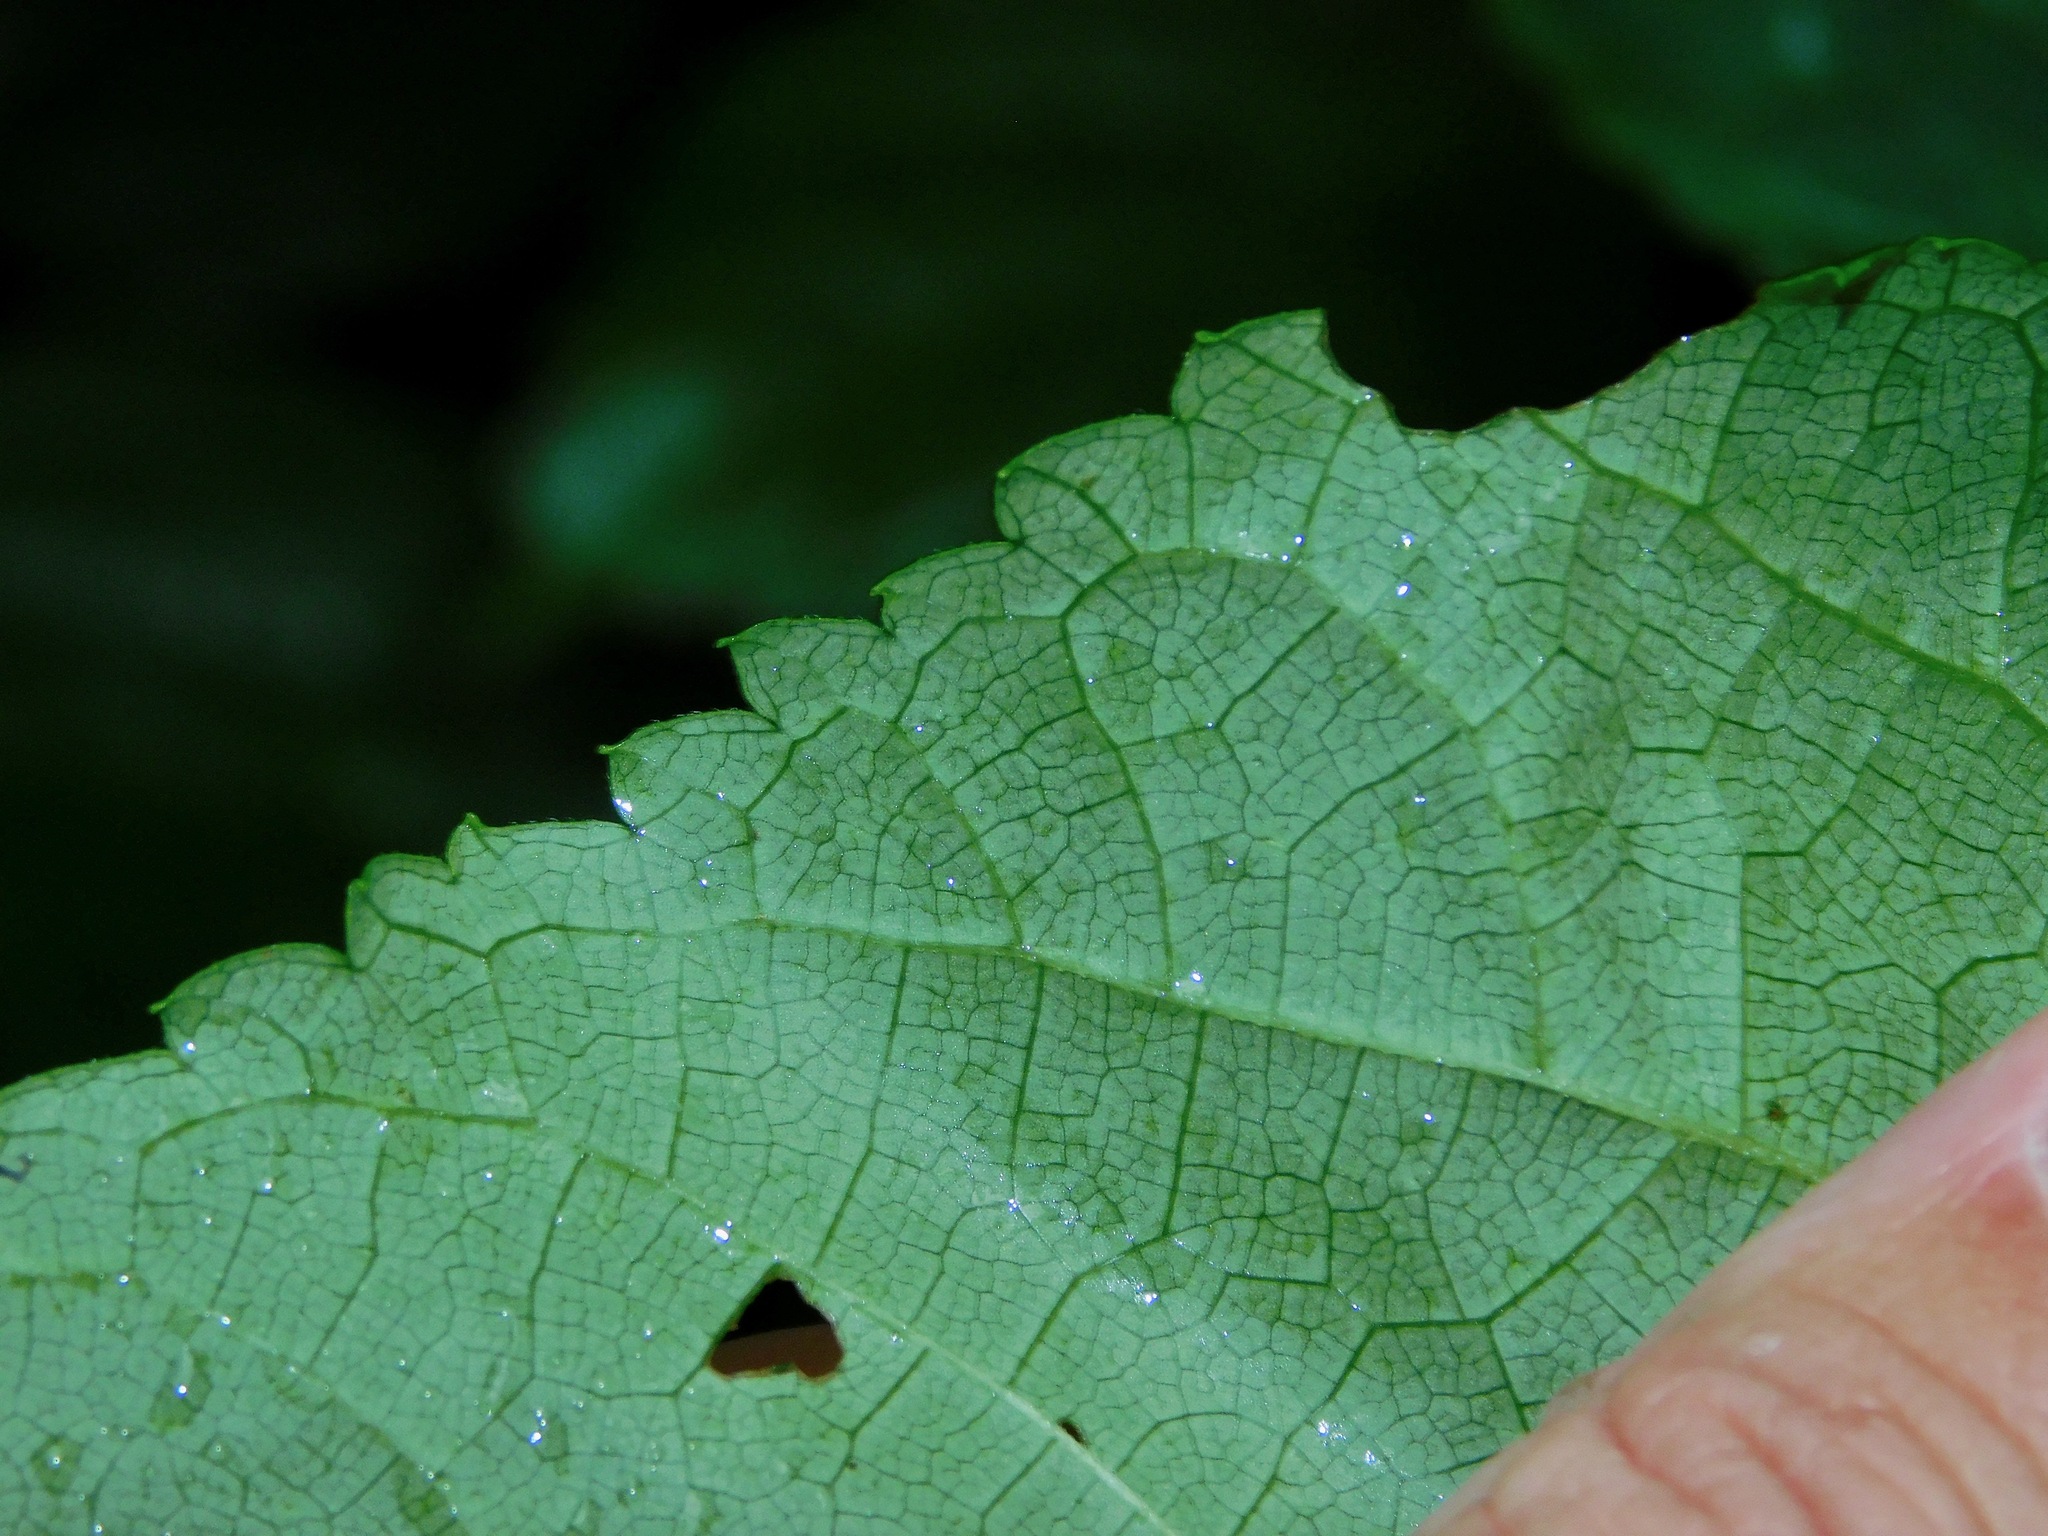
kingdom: Plantae
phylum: Tracheophyta
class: Magnoliopsida
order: Cornales
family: Hydrangeaceae
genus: Hydrangea
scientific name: Hydrangea arborescens
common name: Sevenbark
